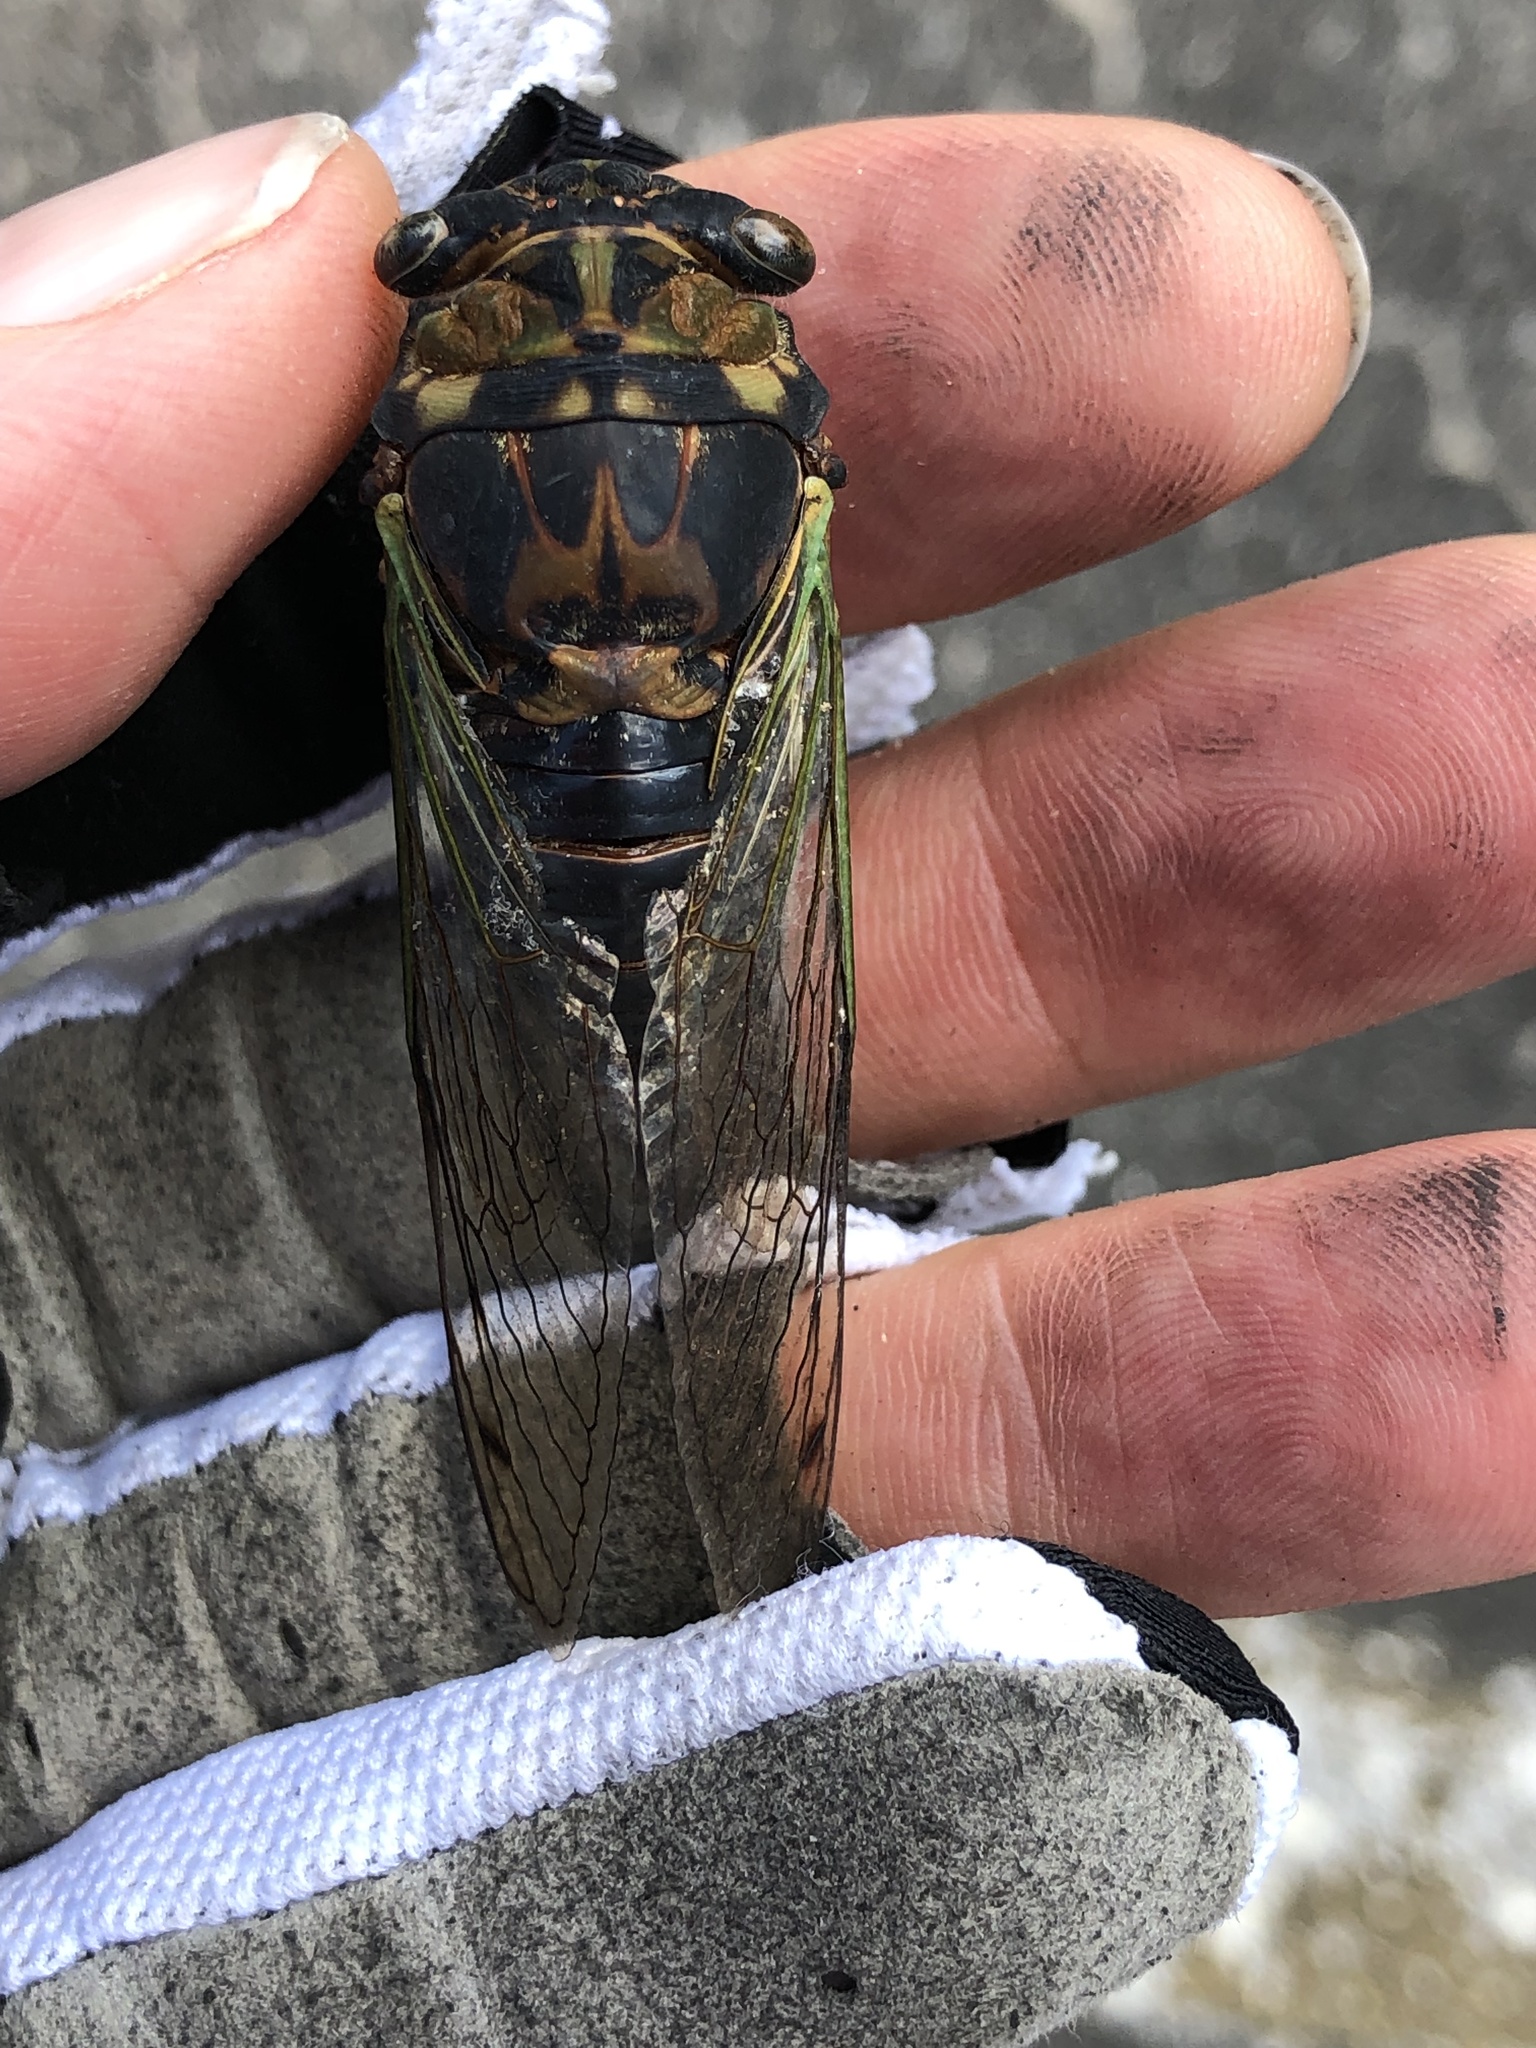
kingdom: Animalia
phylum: Arthropoda
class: Insecta
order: Hemiptera
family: Cicadidae
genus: Neotibicen
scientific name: Neotibicen tibicen
